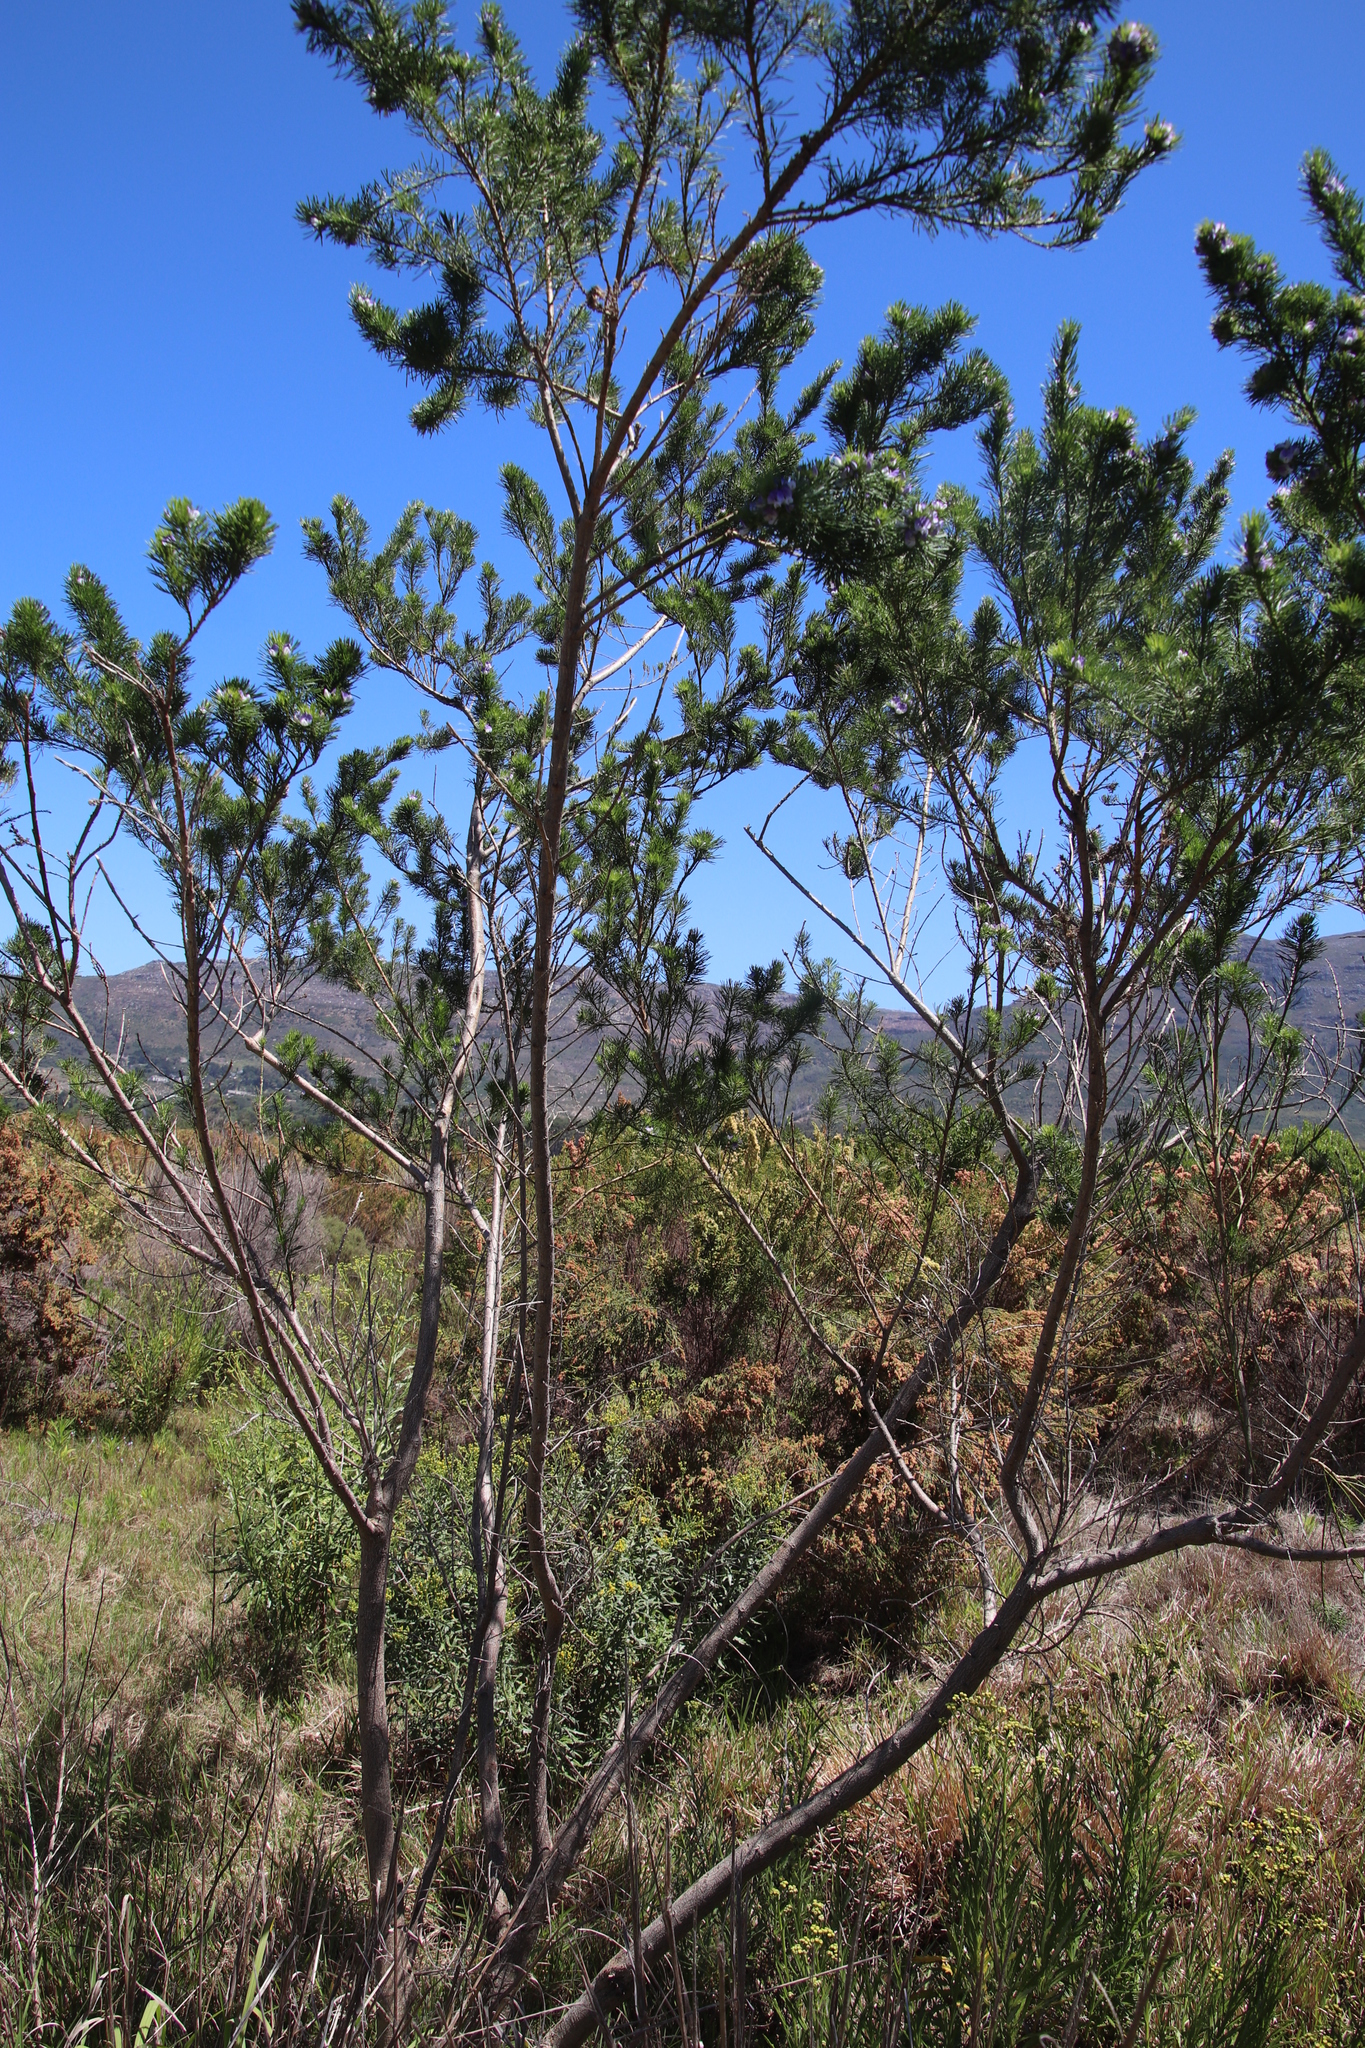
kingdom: Plantae
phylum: Tracheophyta
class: Magnoliopsida
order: Fabales
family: Fabaceae
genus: Psoralea
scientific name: Psoralea pinnata
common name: African scurfpea
